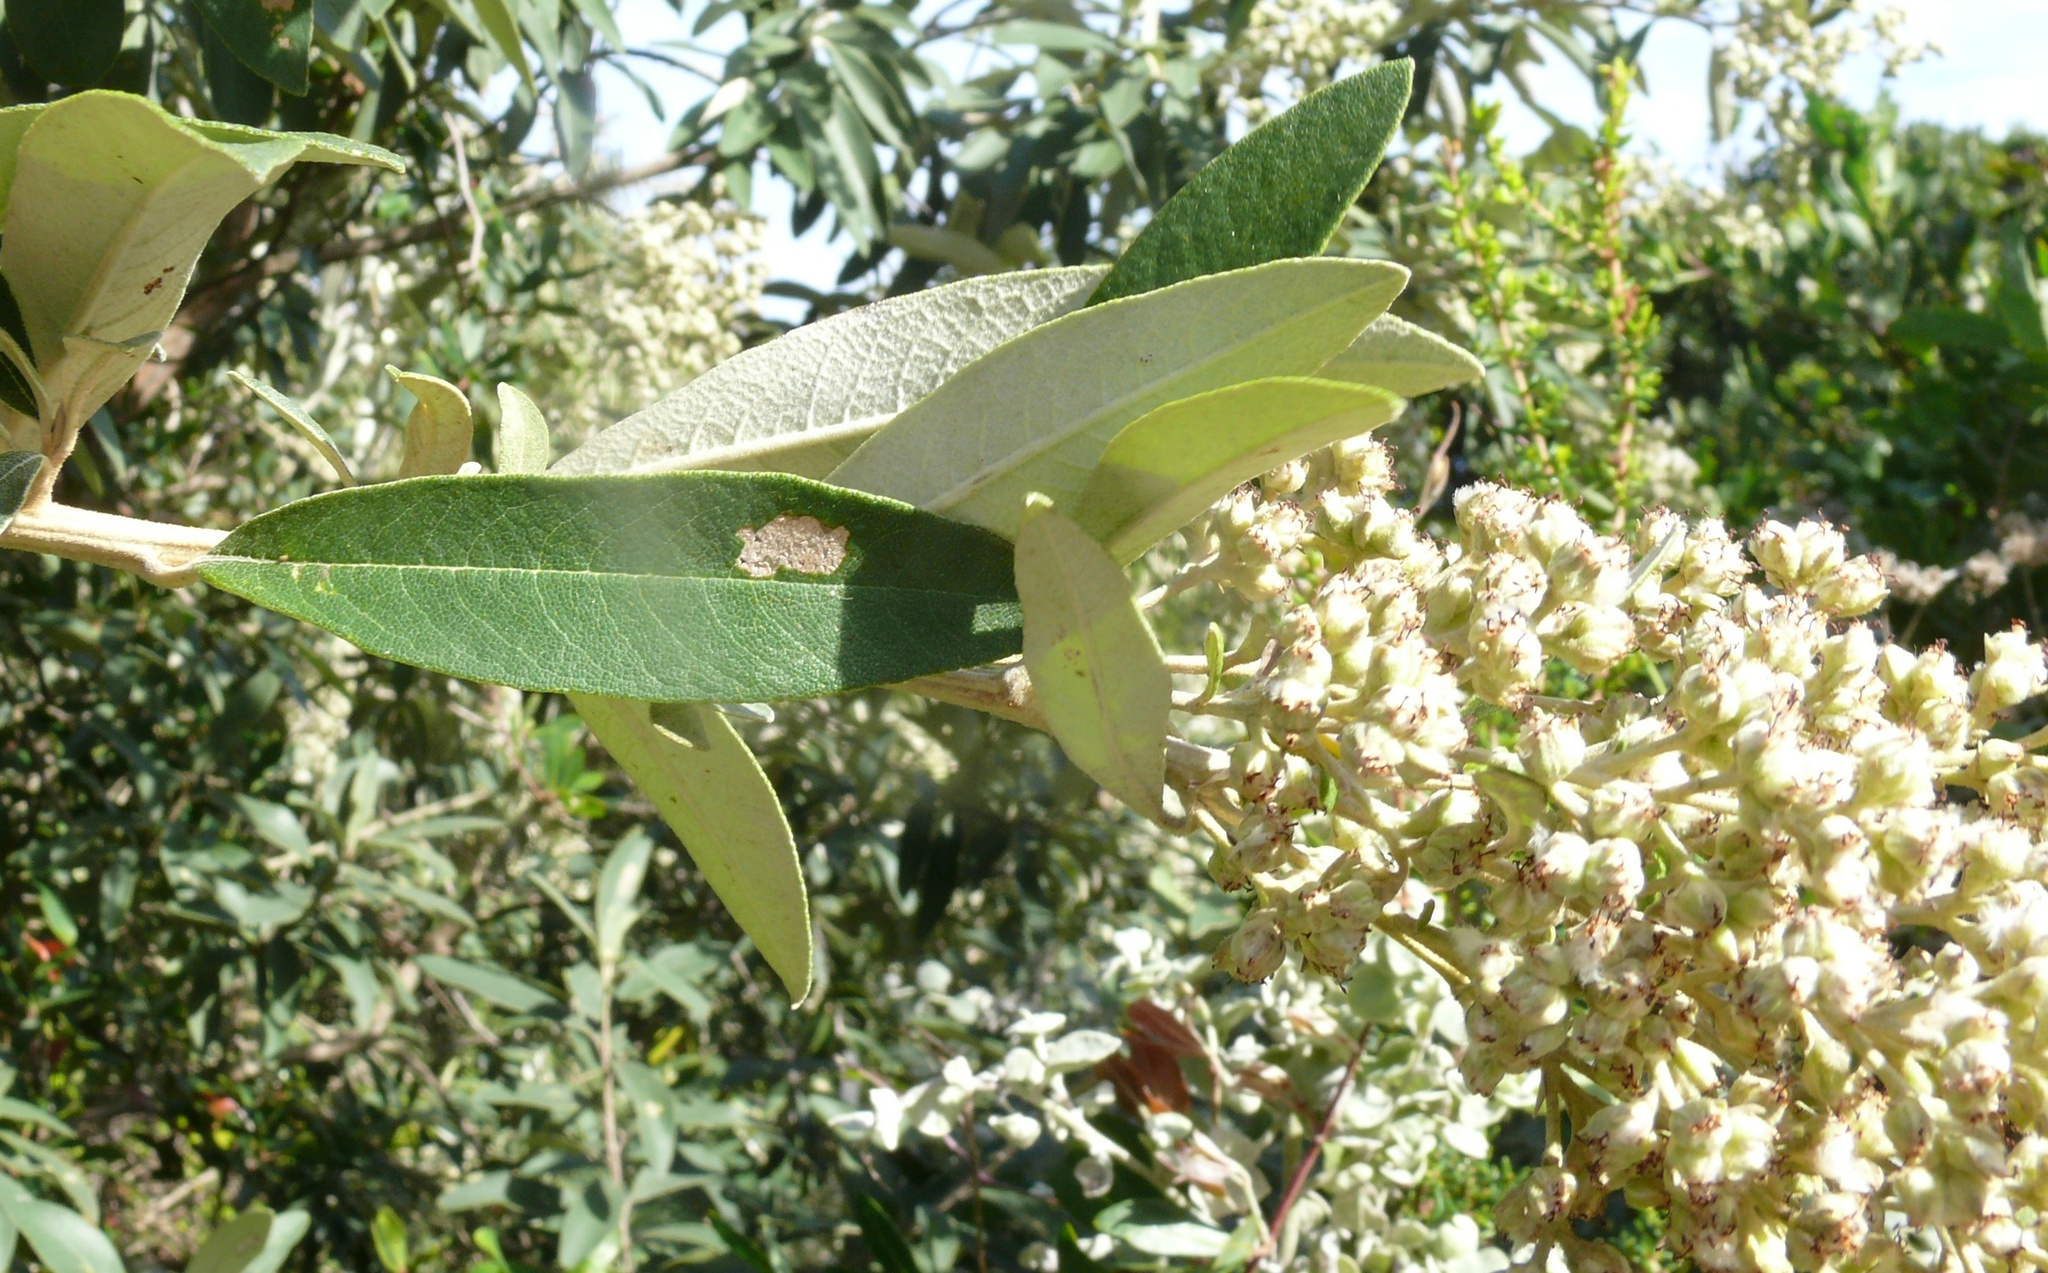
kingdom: Plantae
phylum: Tracheophyta
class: Magnoliopsida
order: Asterales
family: Asteraceae
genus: Tarchonanthus
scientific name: Tarchonanthus littoralis
